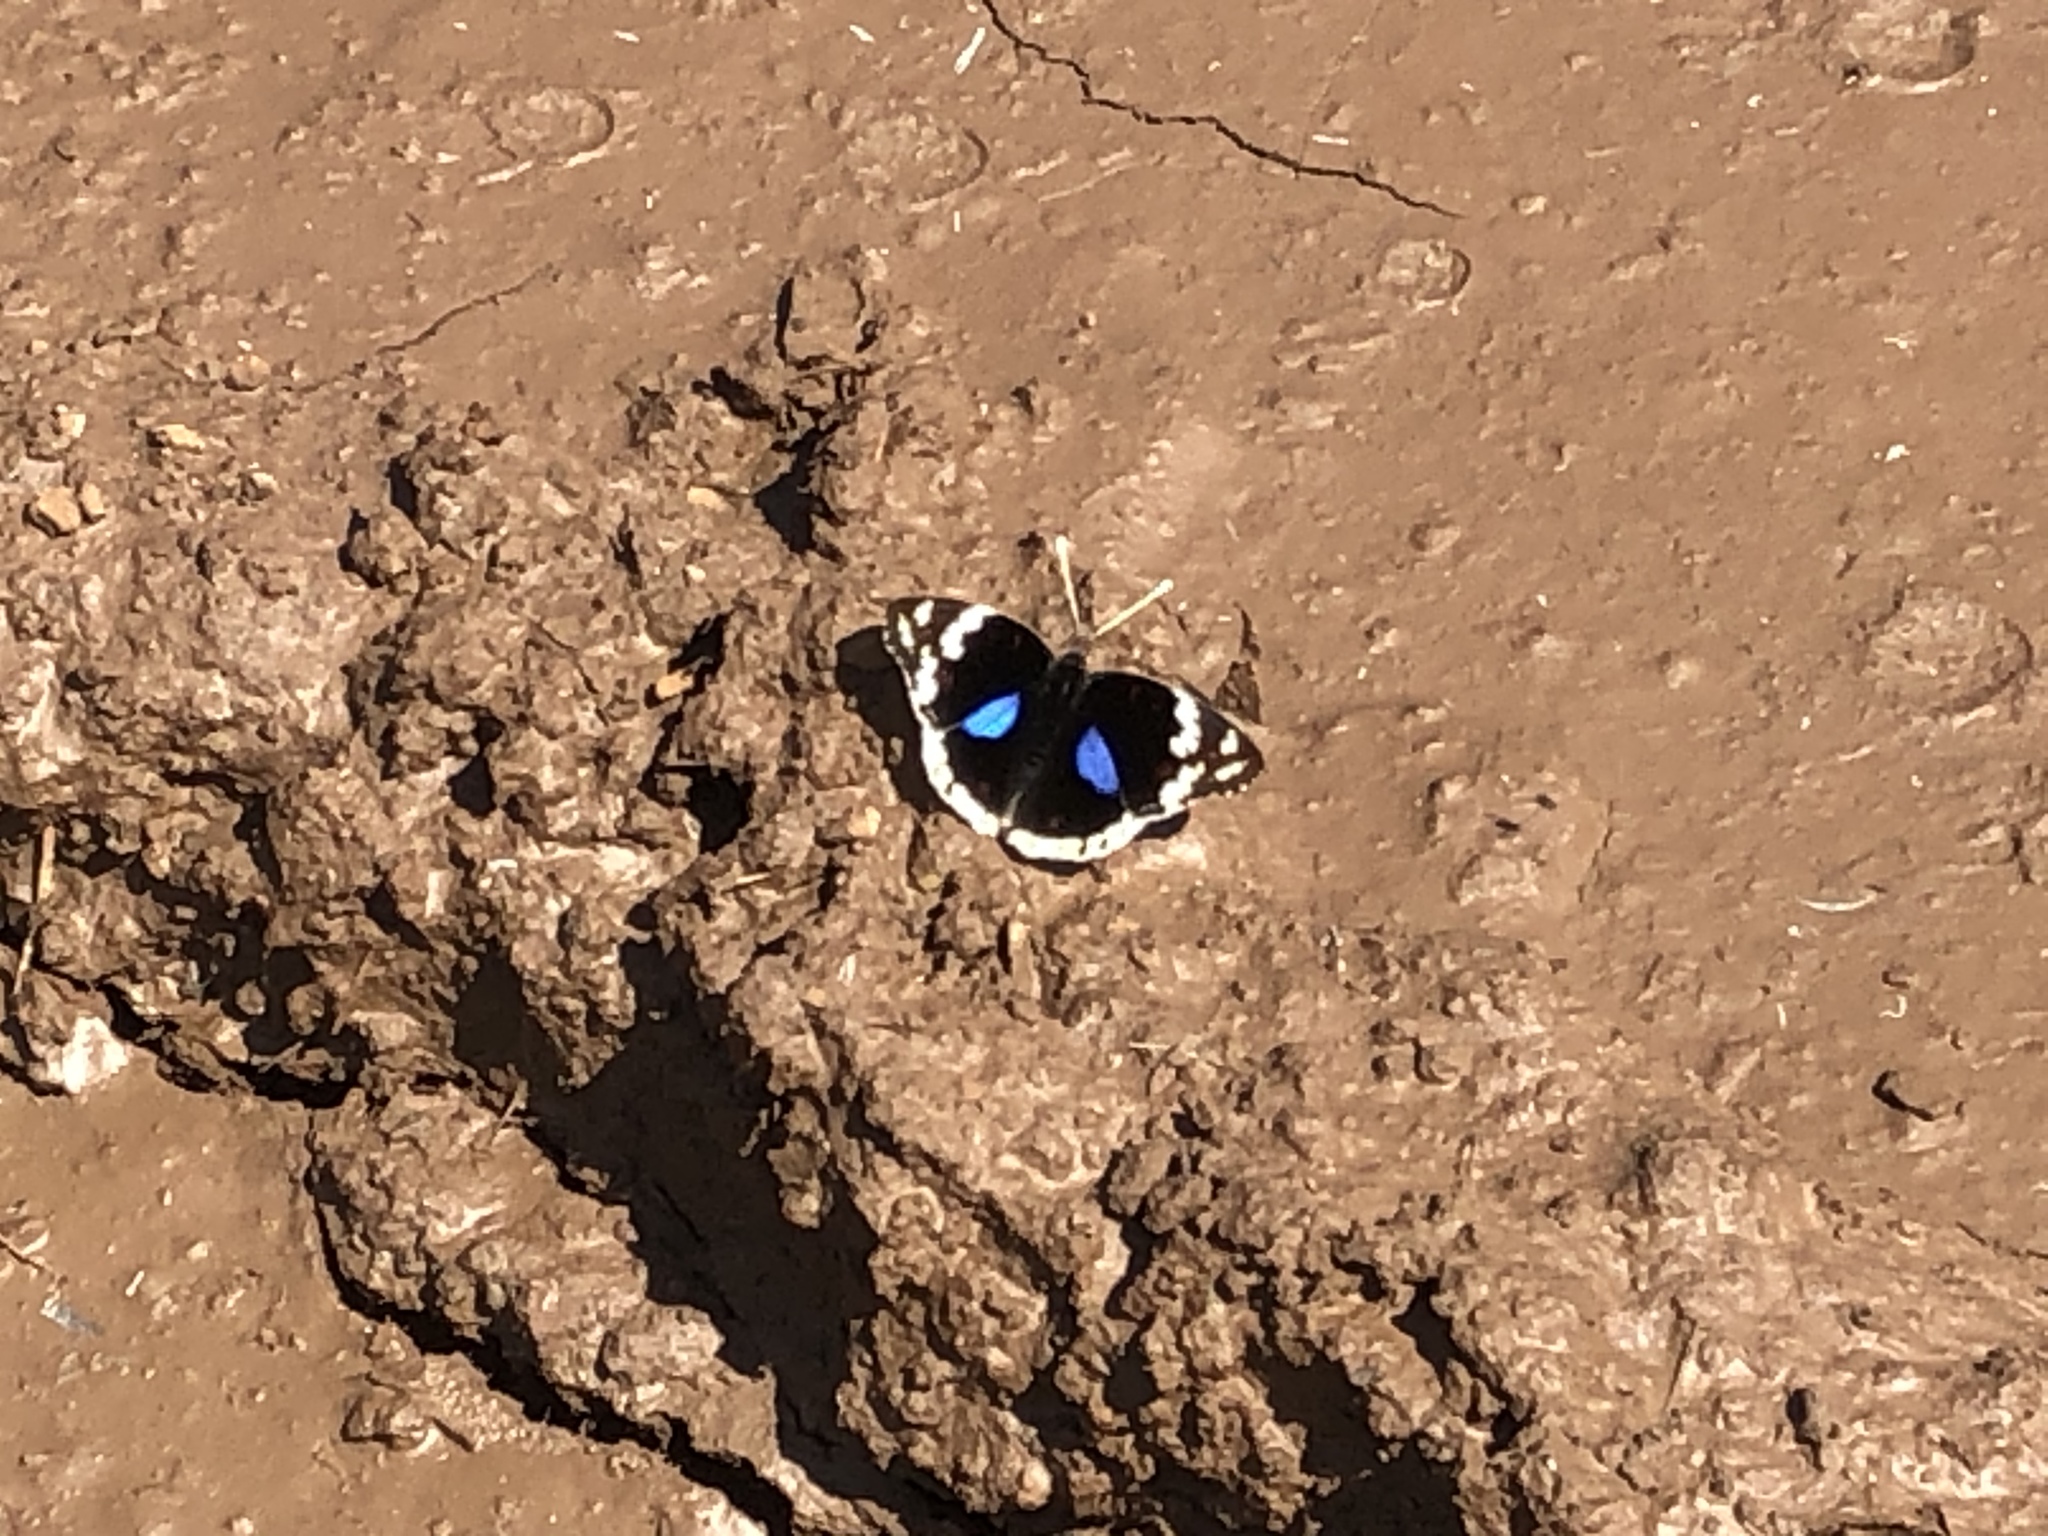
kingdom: Animalia
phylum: Arthropoda
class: Insecta
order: Lepidoptera
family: Nymphalidae
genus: Junonia
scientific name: Junonia oenone
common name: Dark blue pansy
